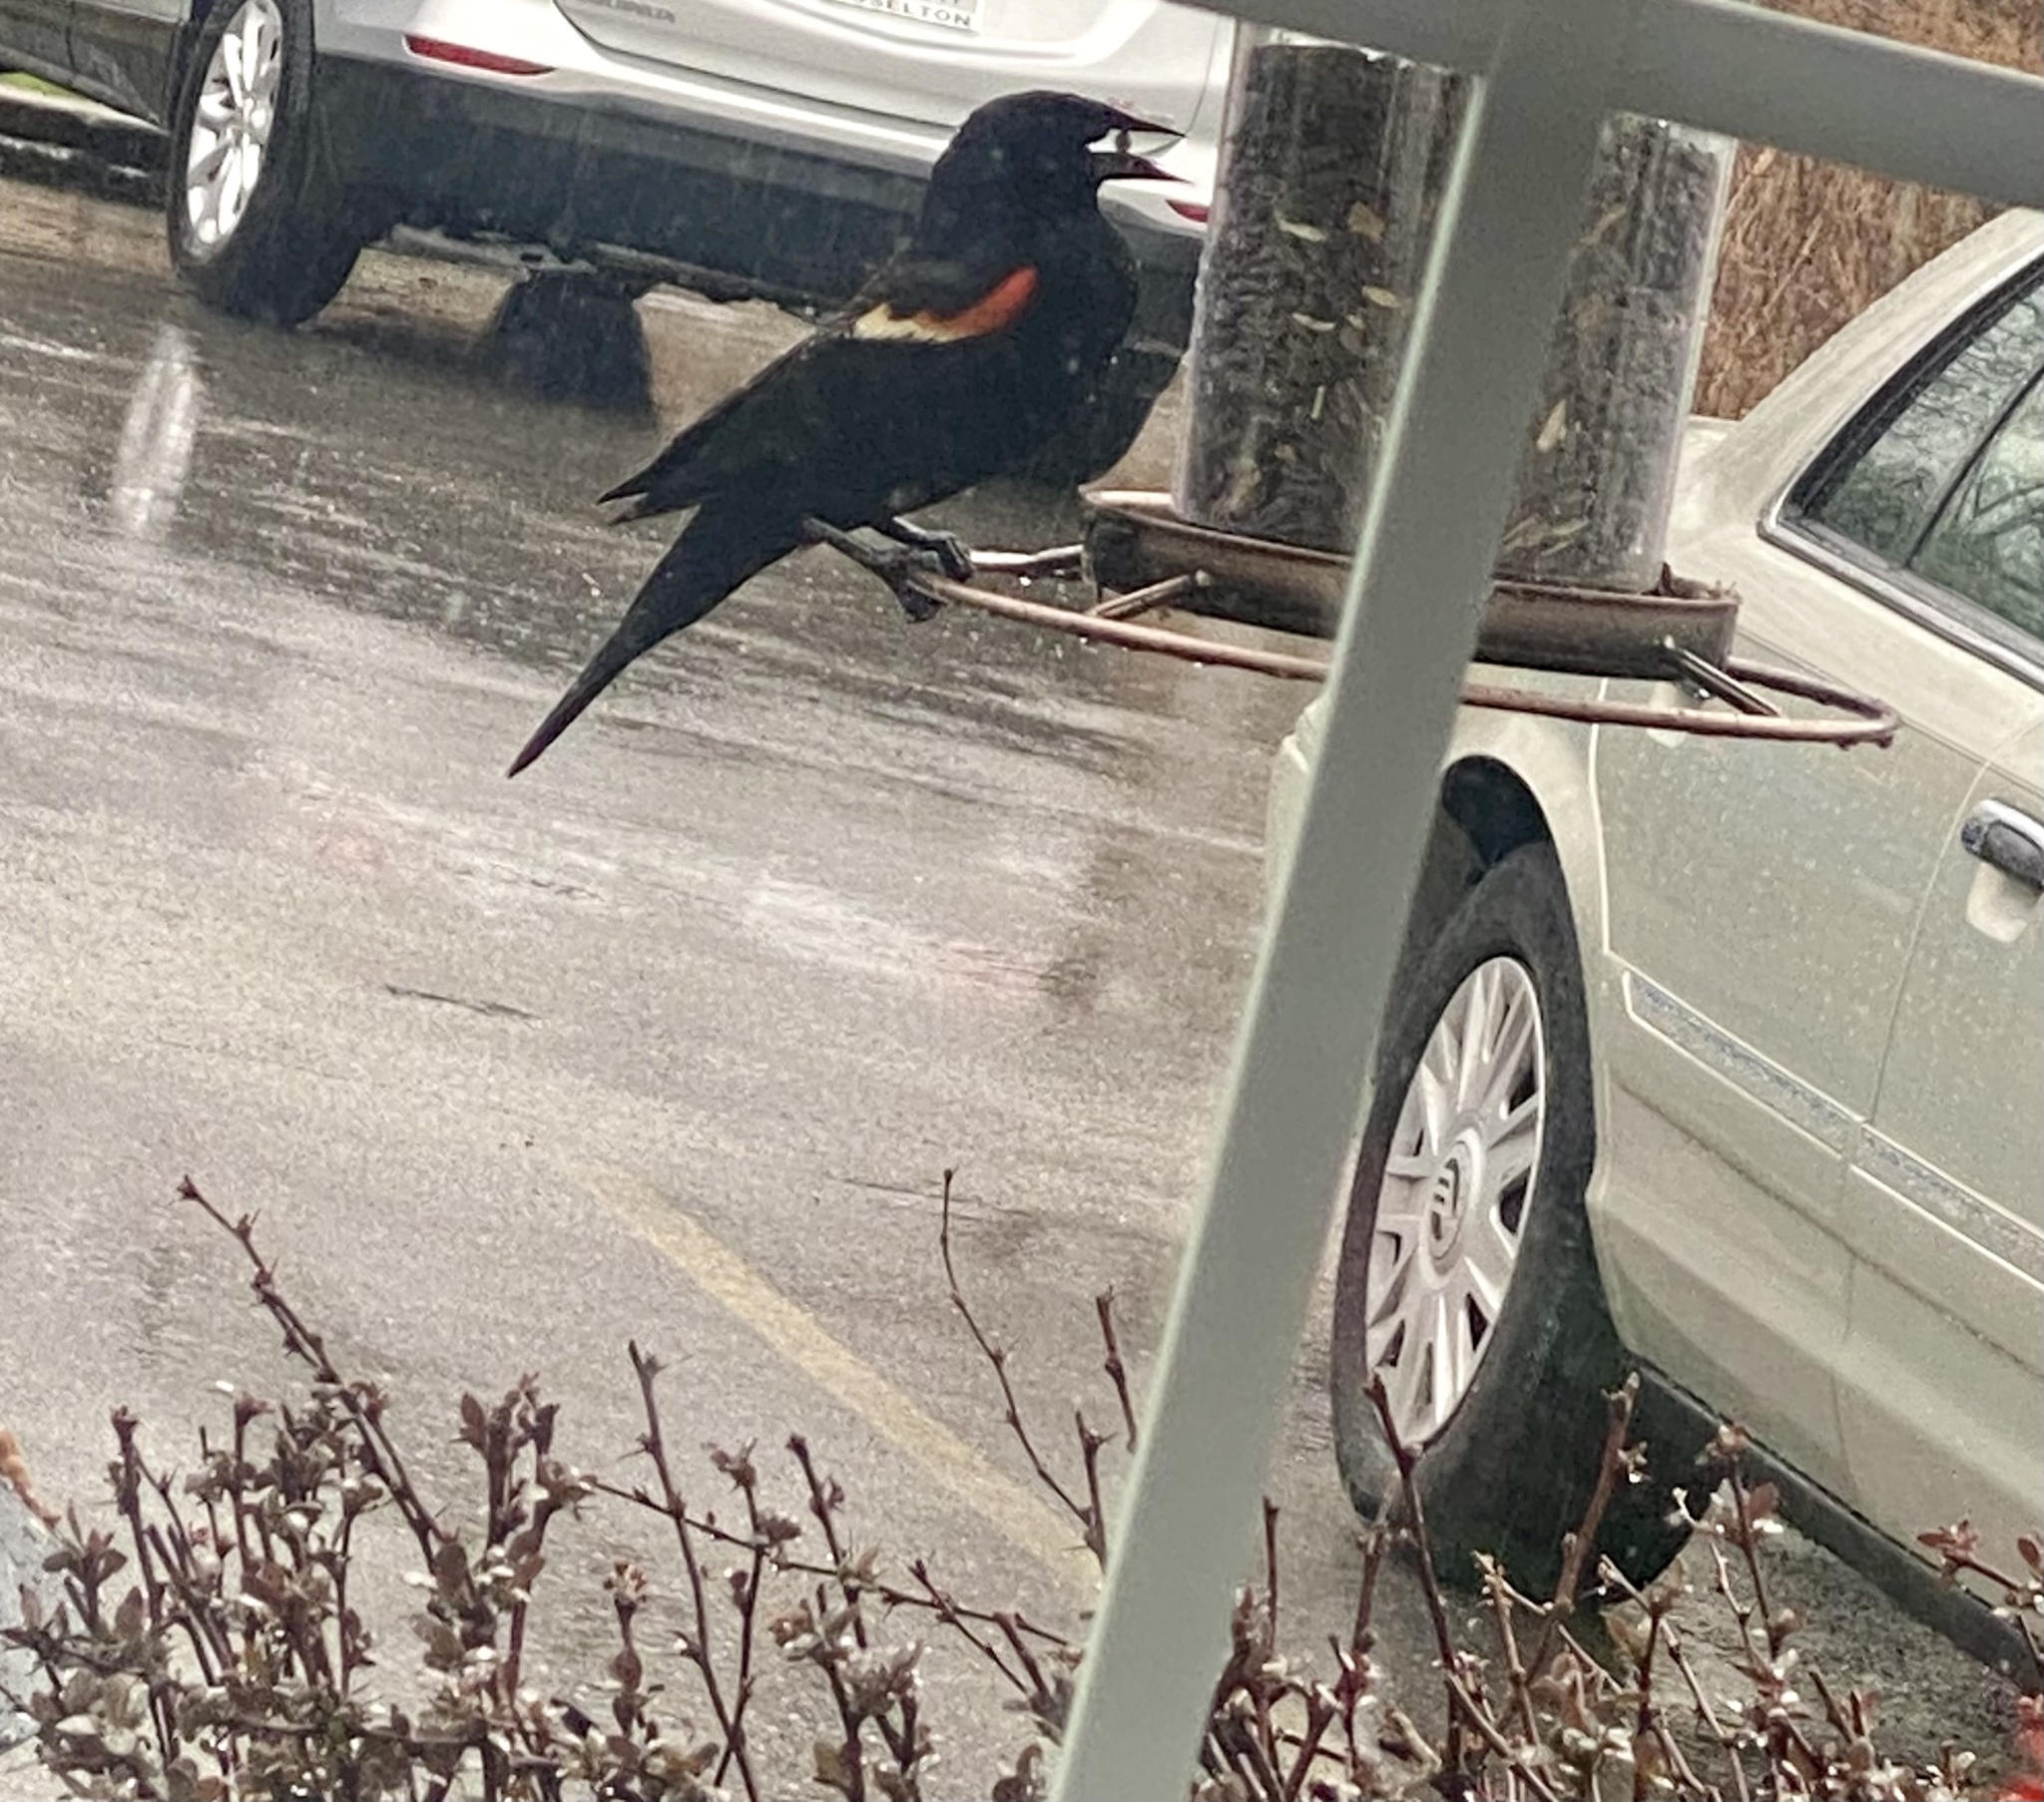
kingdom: Animalia
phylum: Chordata
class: Aves
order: Passeriformes
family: Icteridae
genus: Agelaius
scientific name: Agelaius phoeniceus
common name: Red-winged blackbird
